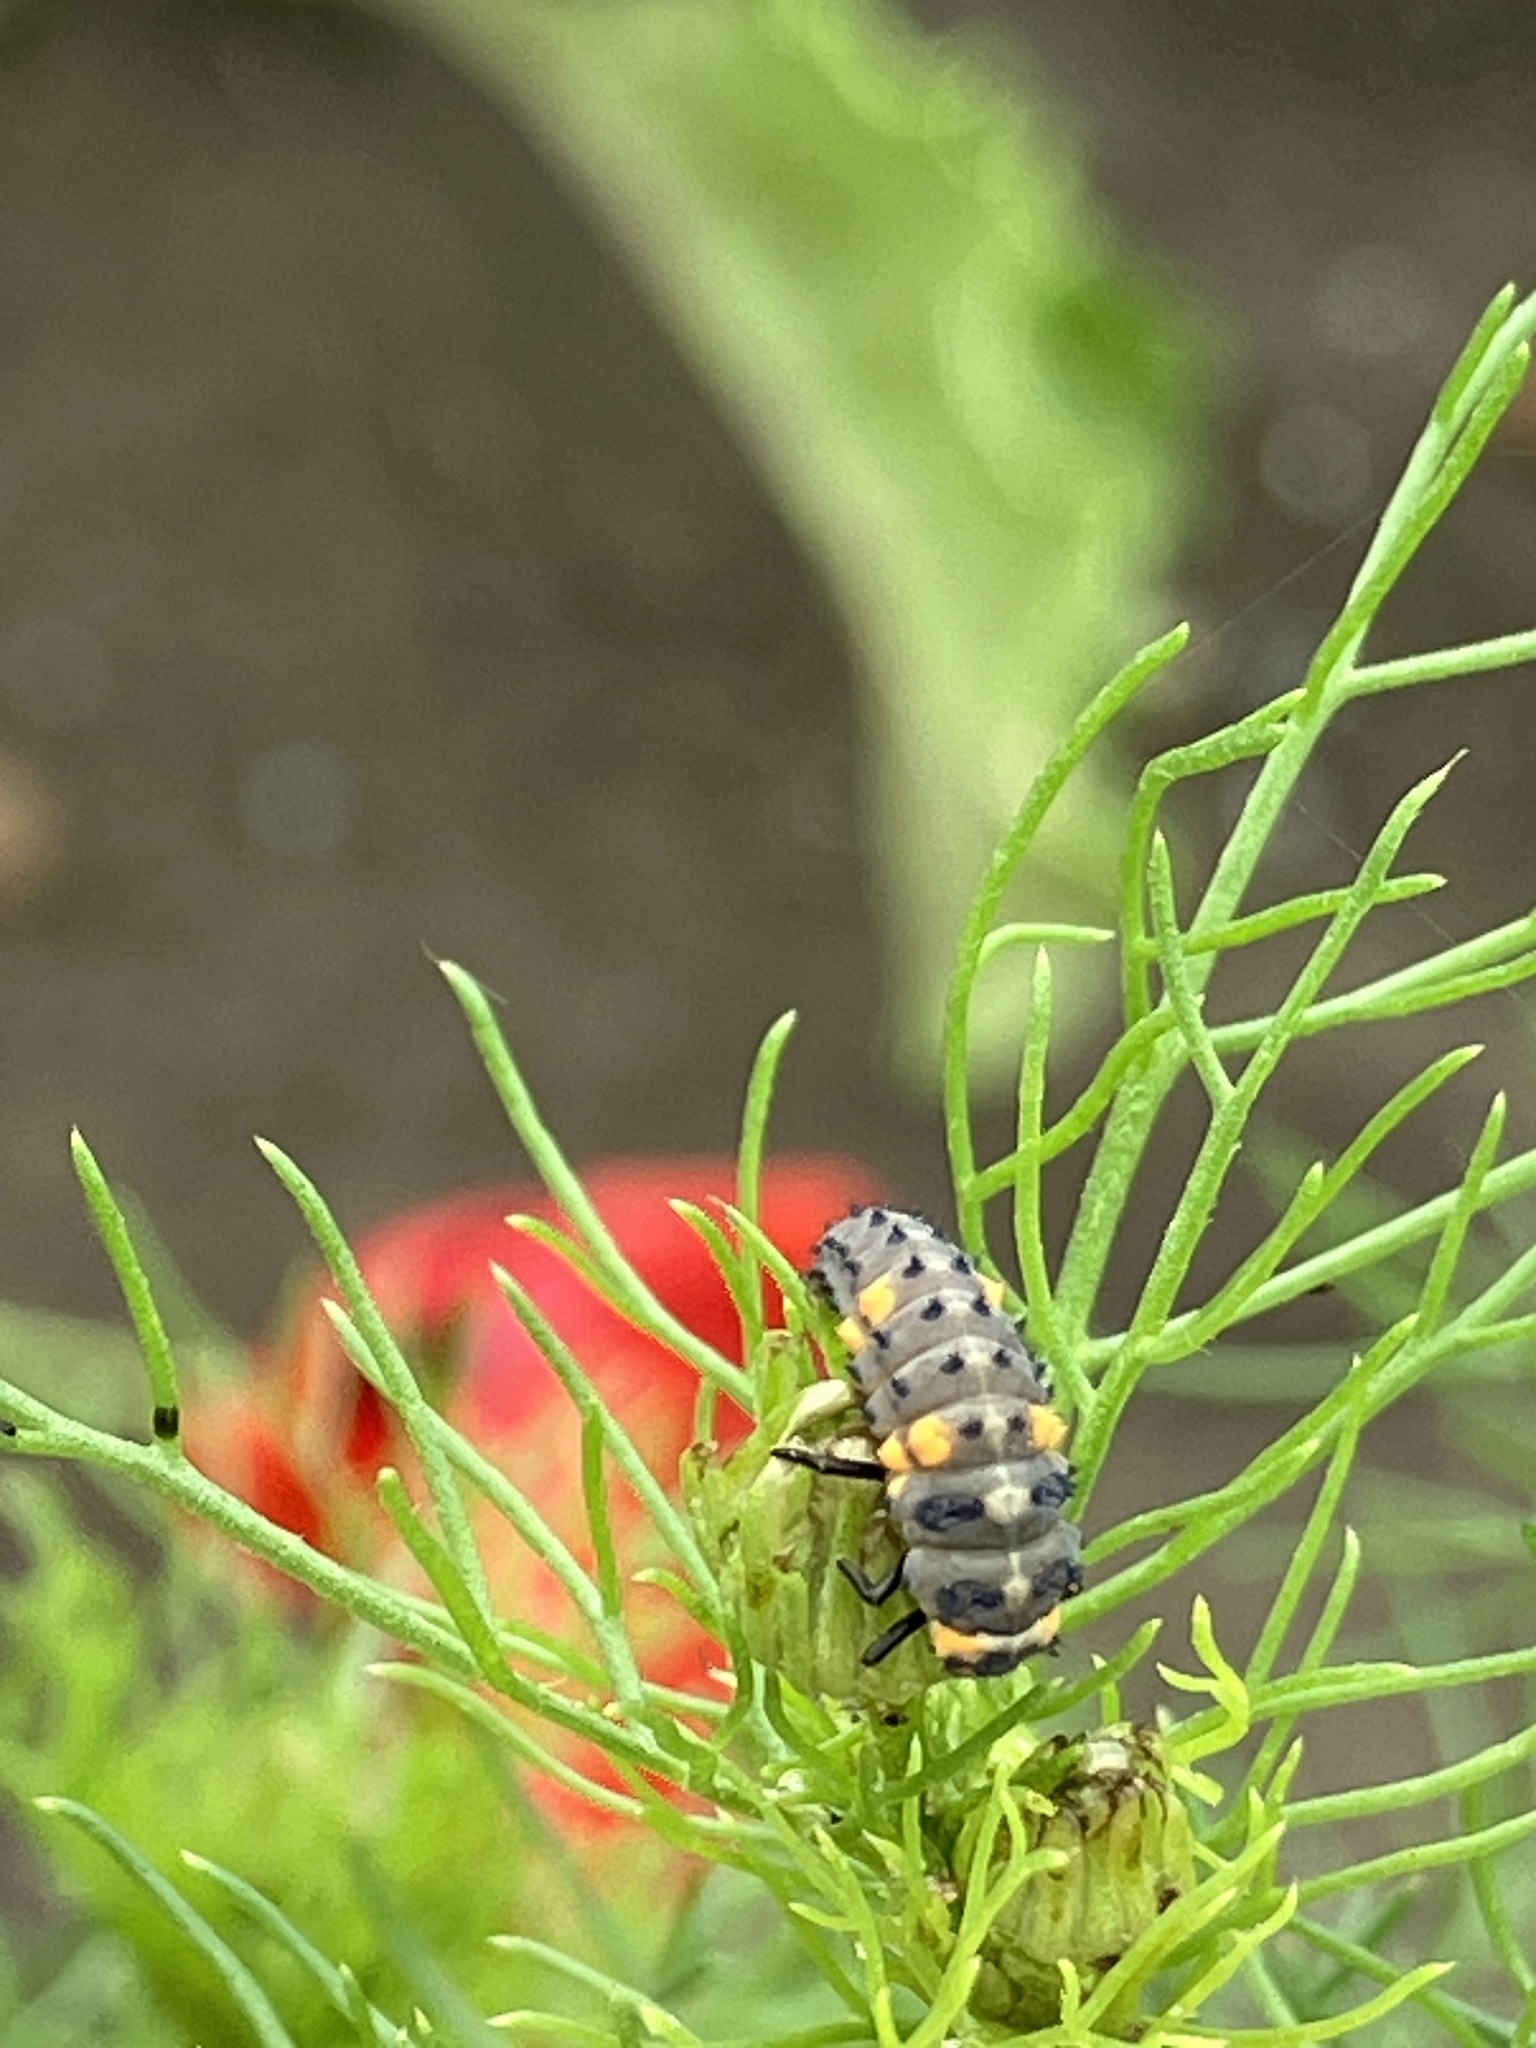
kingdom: Animalia
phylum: Arthropoda
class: Insecta
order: Coleoptera
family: Coccinellidae
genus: Coccinella
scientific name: Coccinella septempunctata
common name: Sevenspotted lady beetle
